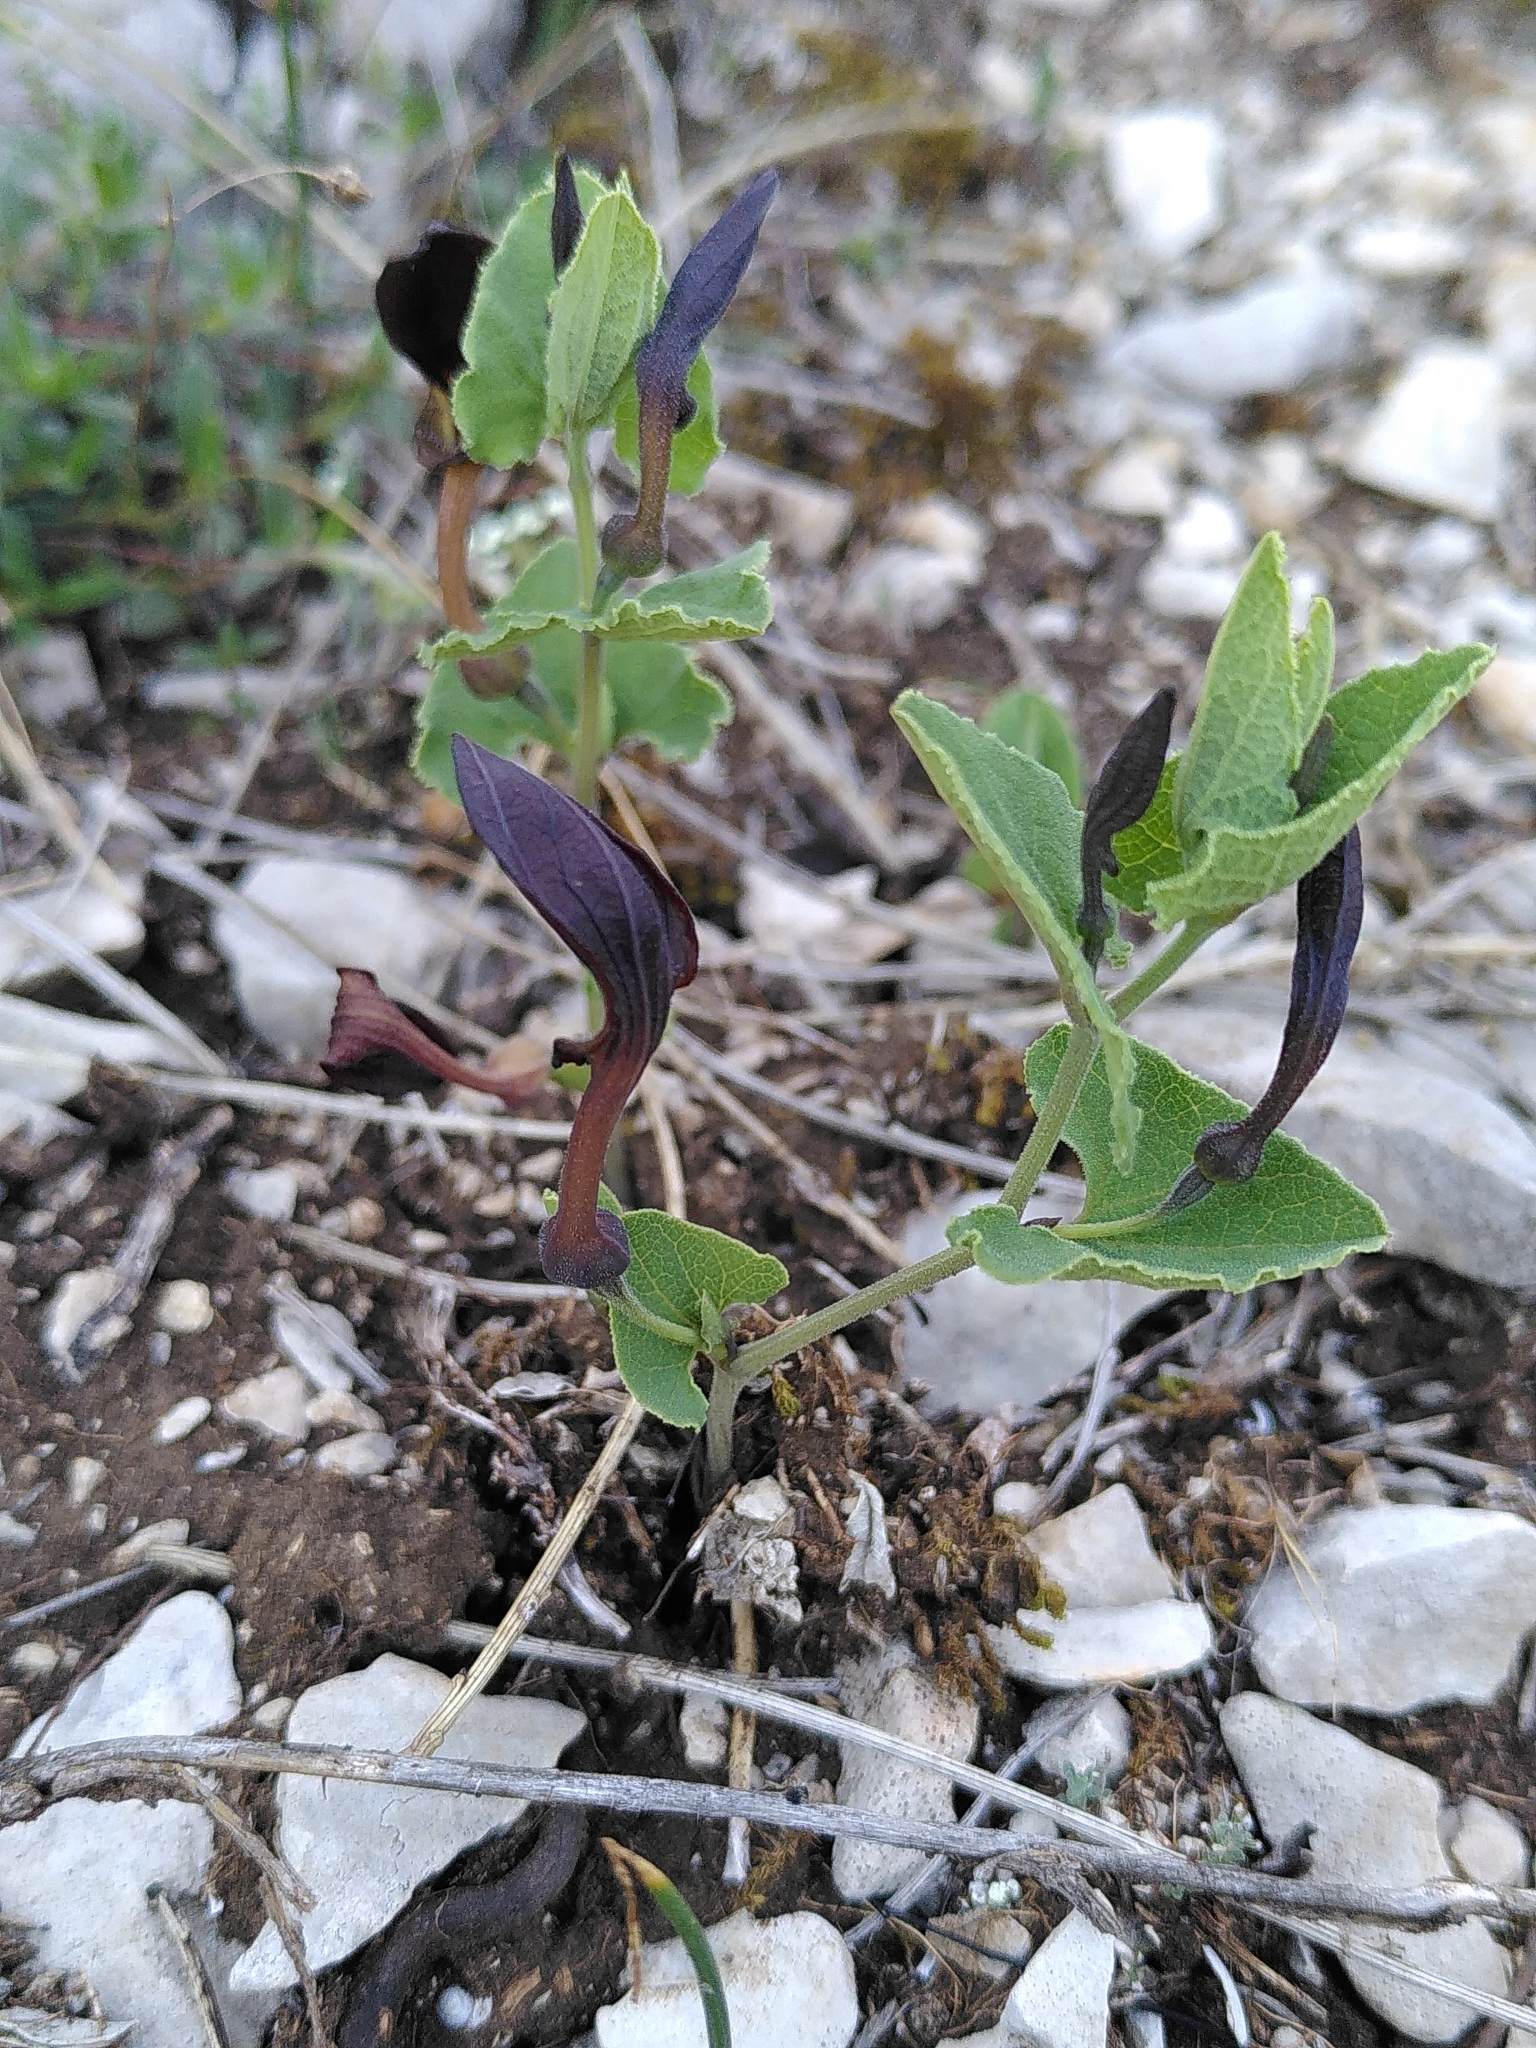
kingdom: Plantae
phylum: Tracheophyta
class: Magnoliopsida
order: Piperales
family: Aristolochiaceae
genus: Aristolochia
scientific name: Aristolochia pistolochia
